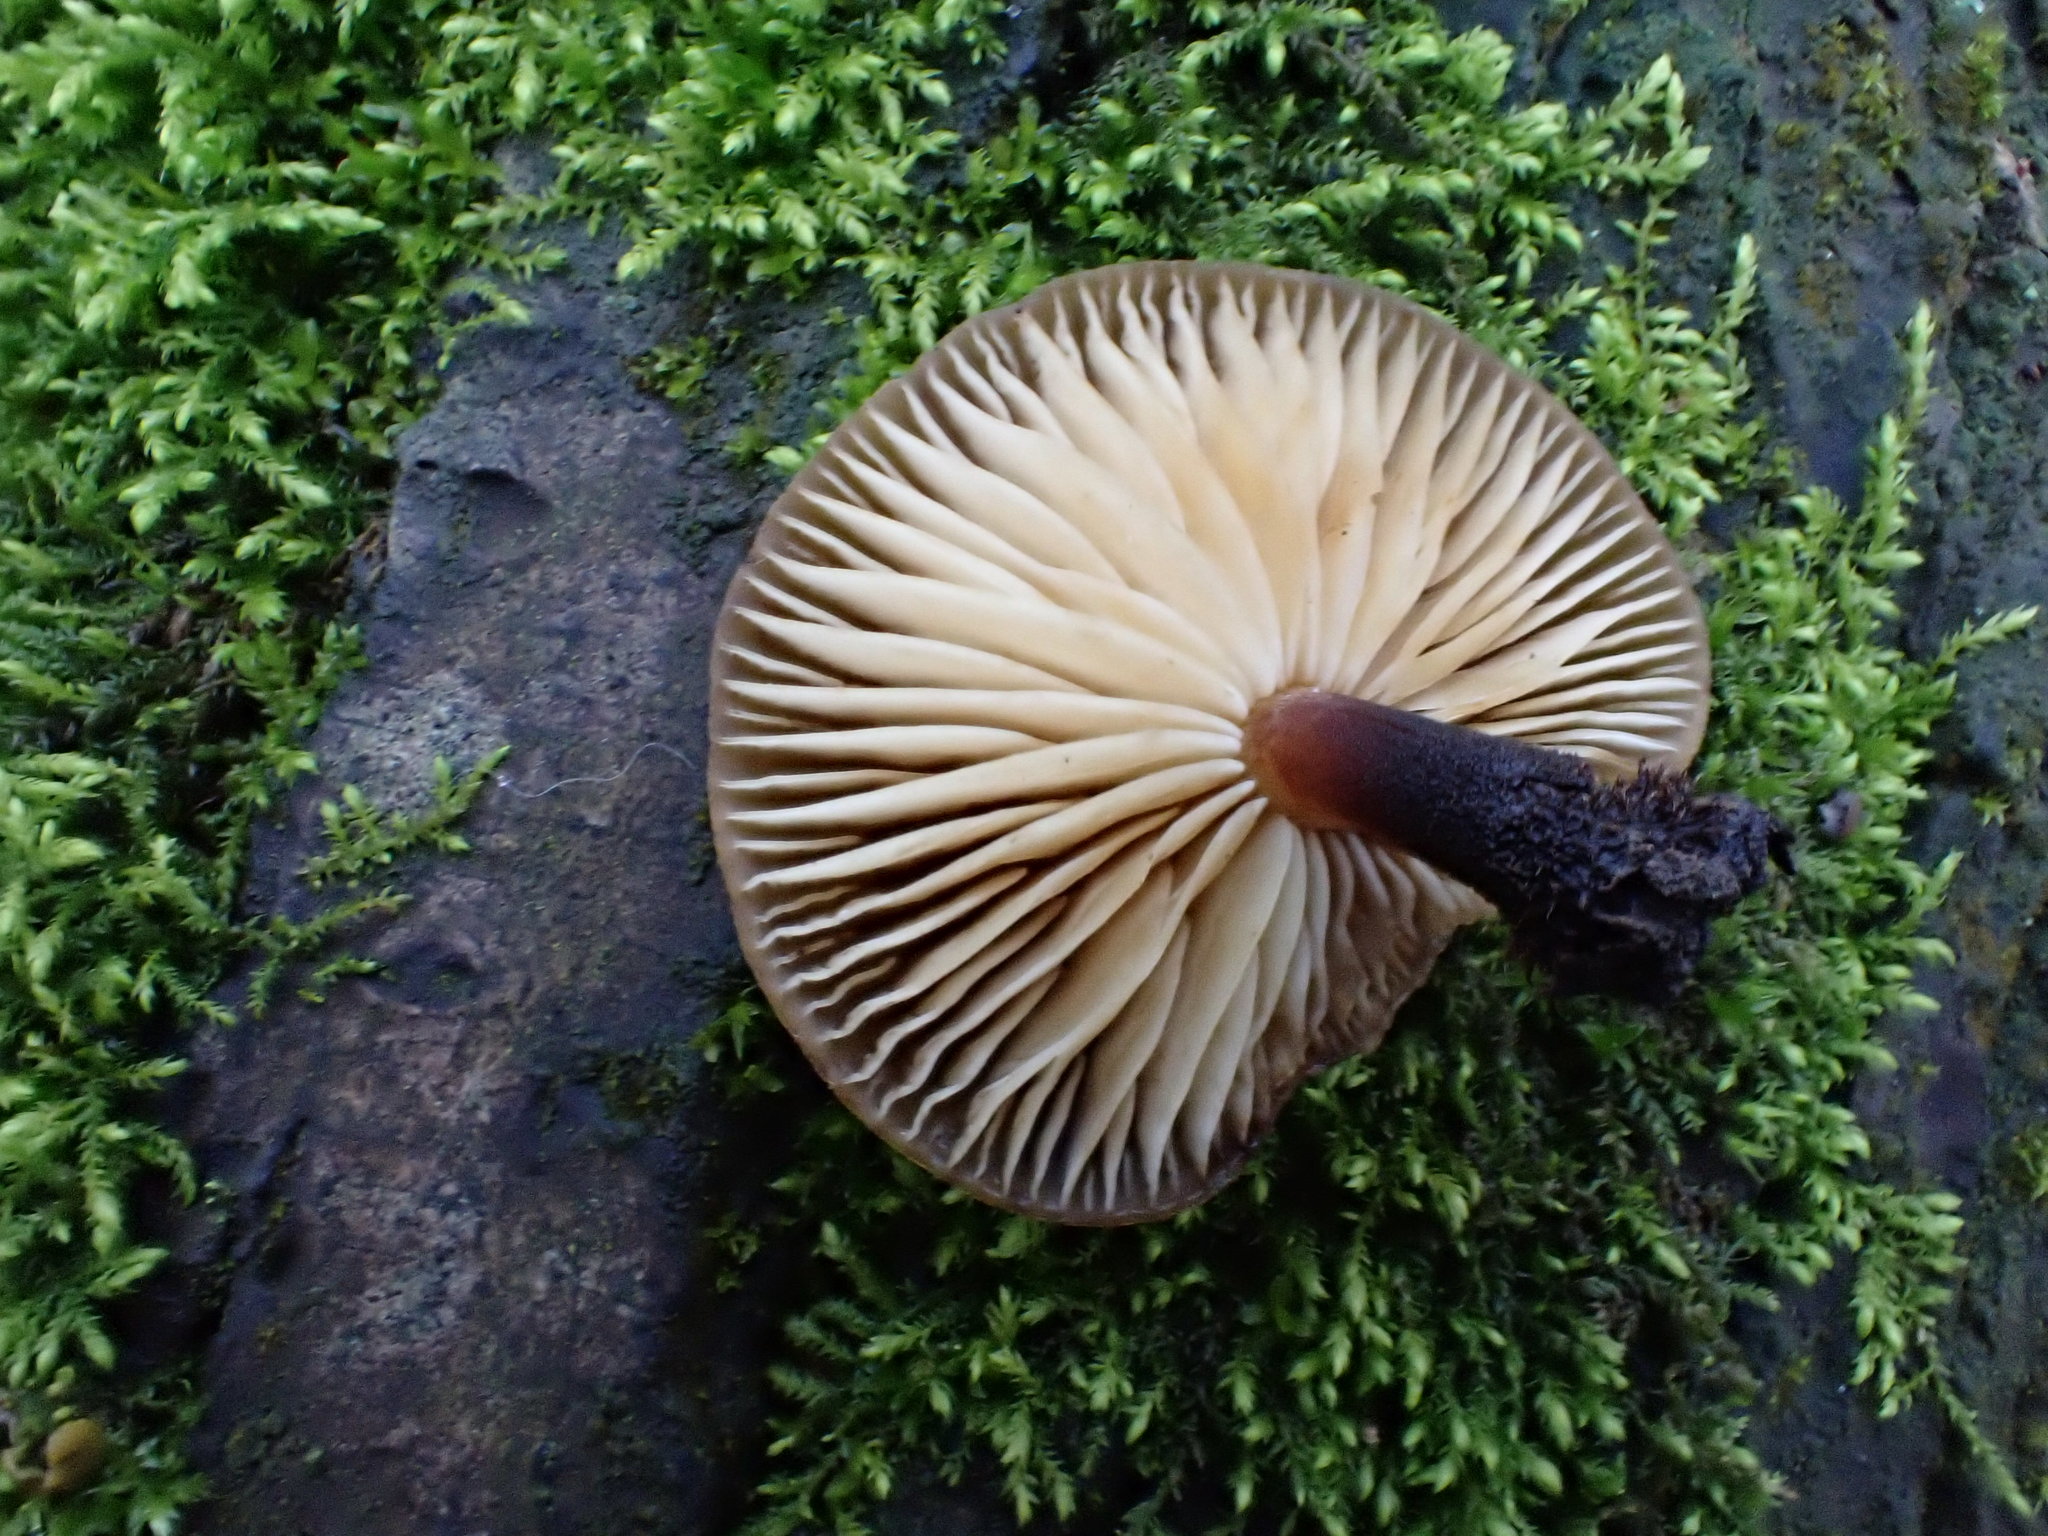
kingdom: Fungi
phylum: Basidiomycota
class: Agaricomycetes
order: Agaricales
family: Physalacriaceae
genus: Flammulina
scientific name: Flammulina
